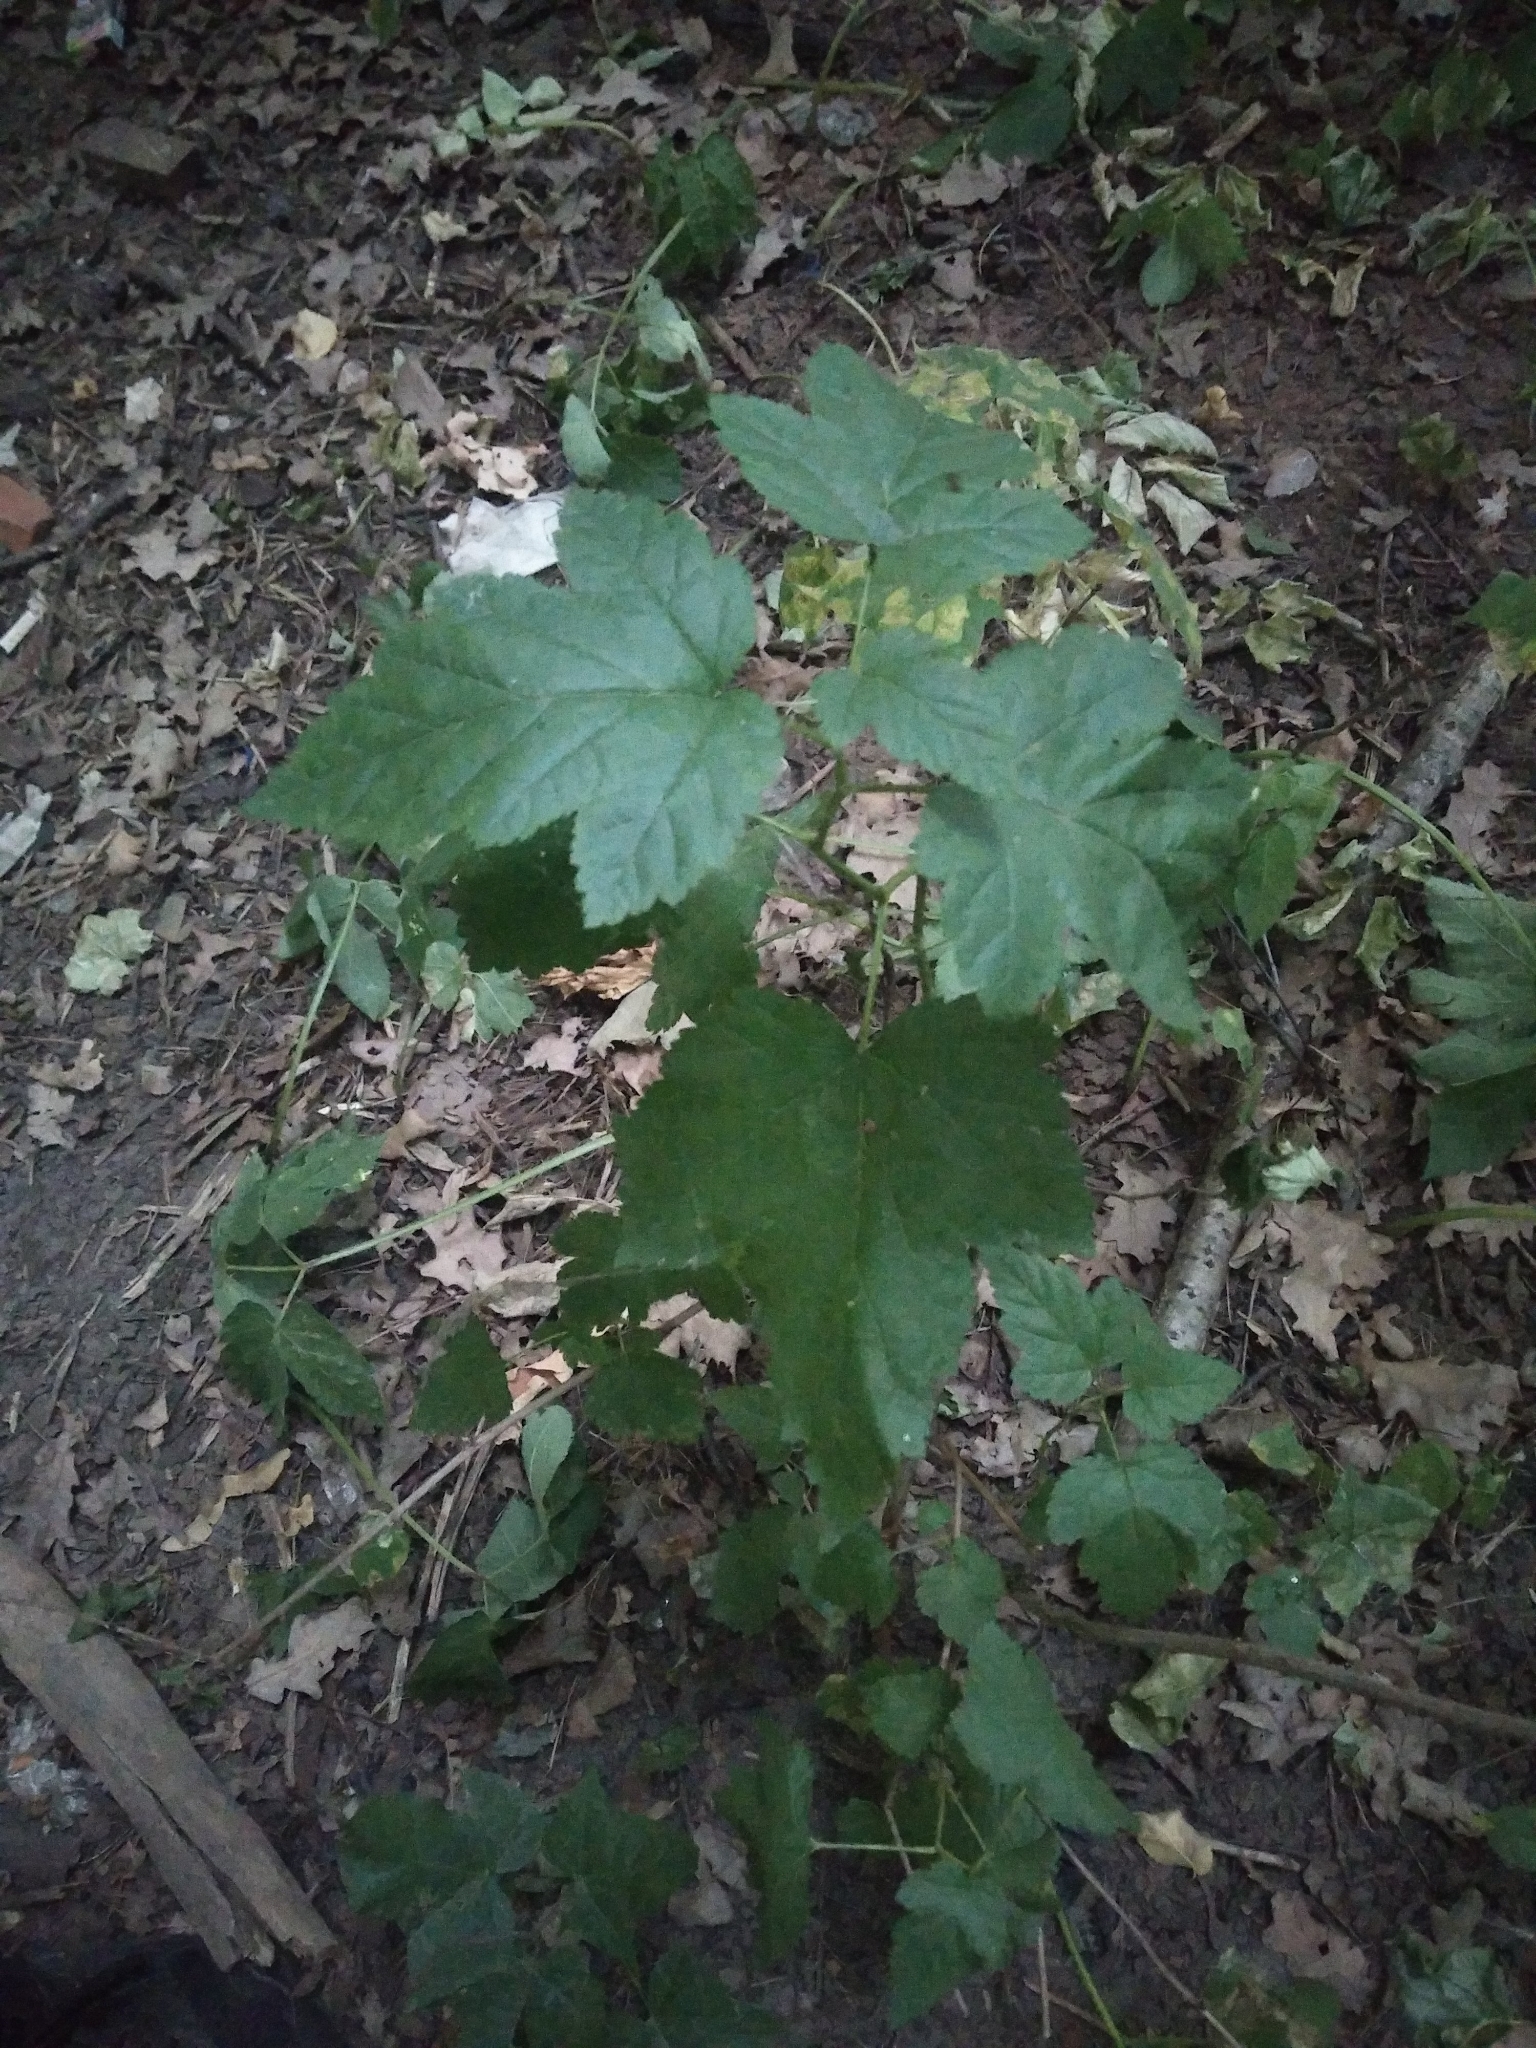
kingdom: Plantae
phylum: Tracheophyta
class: Magnoliopsida
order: Saxifragales
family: Grossulariaceae
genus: Ribes
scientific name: Ribes nigrum
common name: Black currant
